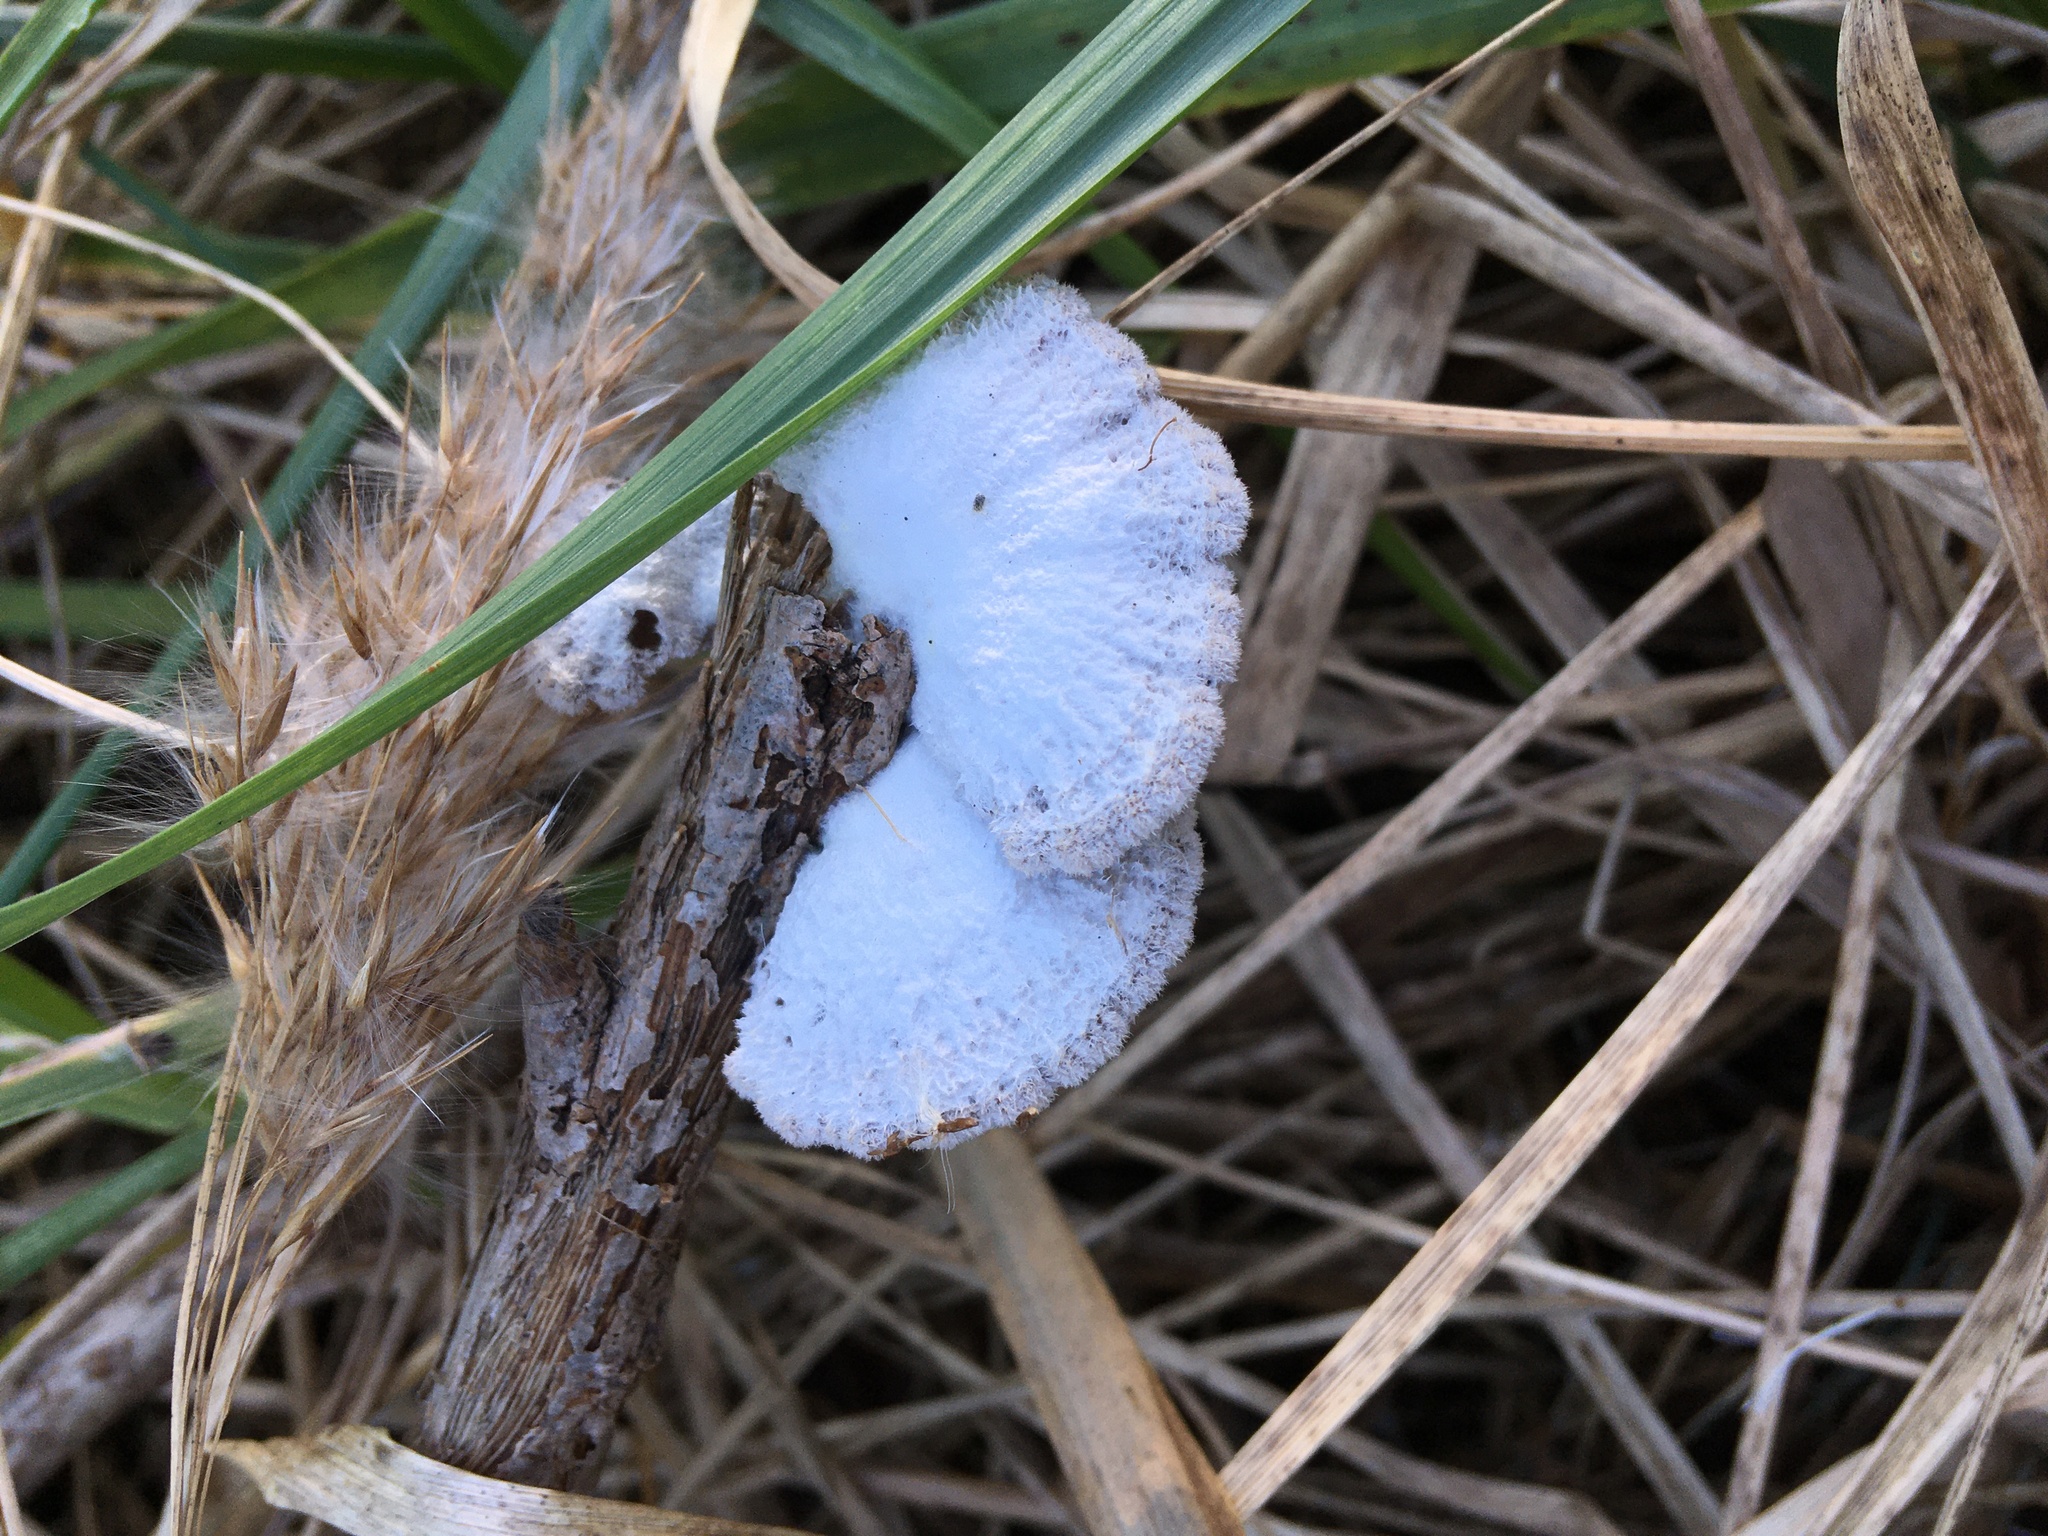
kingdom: Fungi
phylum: Basidiomycota
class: Agaricomycetes
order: Agaricales
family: Schizophyllaceae
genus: Schizophyllum
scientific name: Schizophyllum commune
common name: Common porecrust
